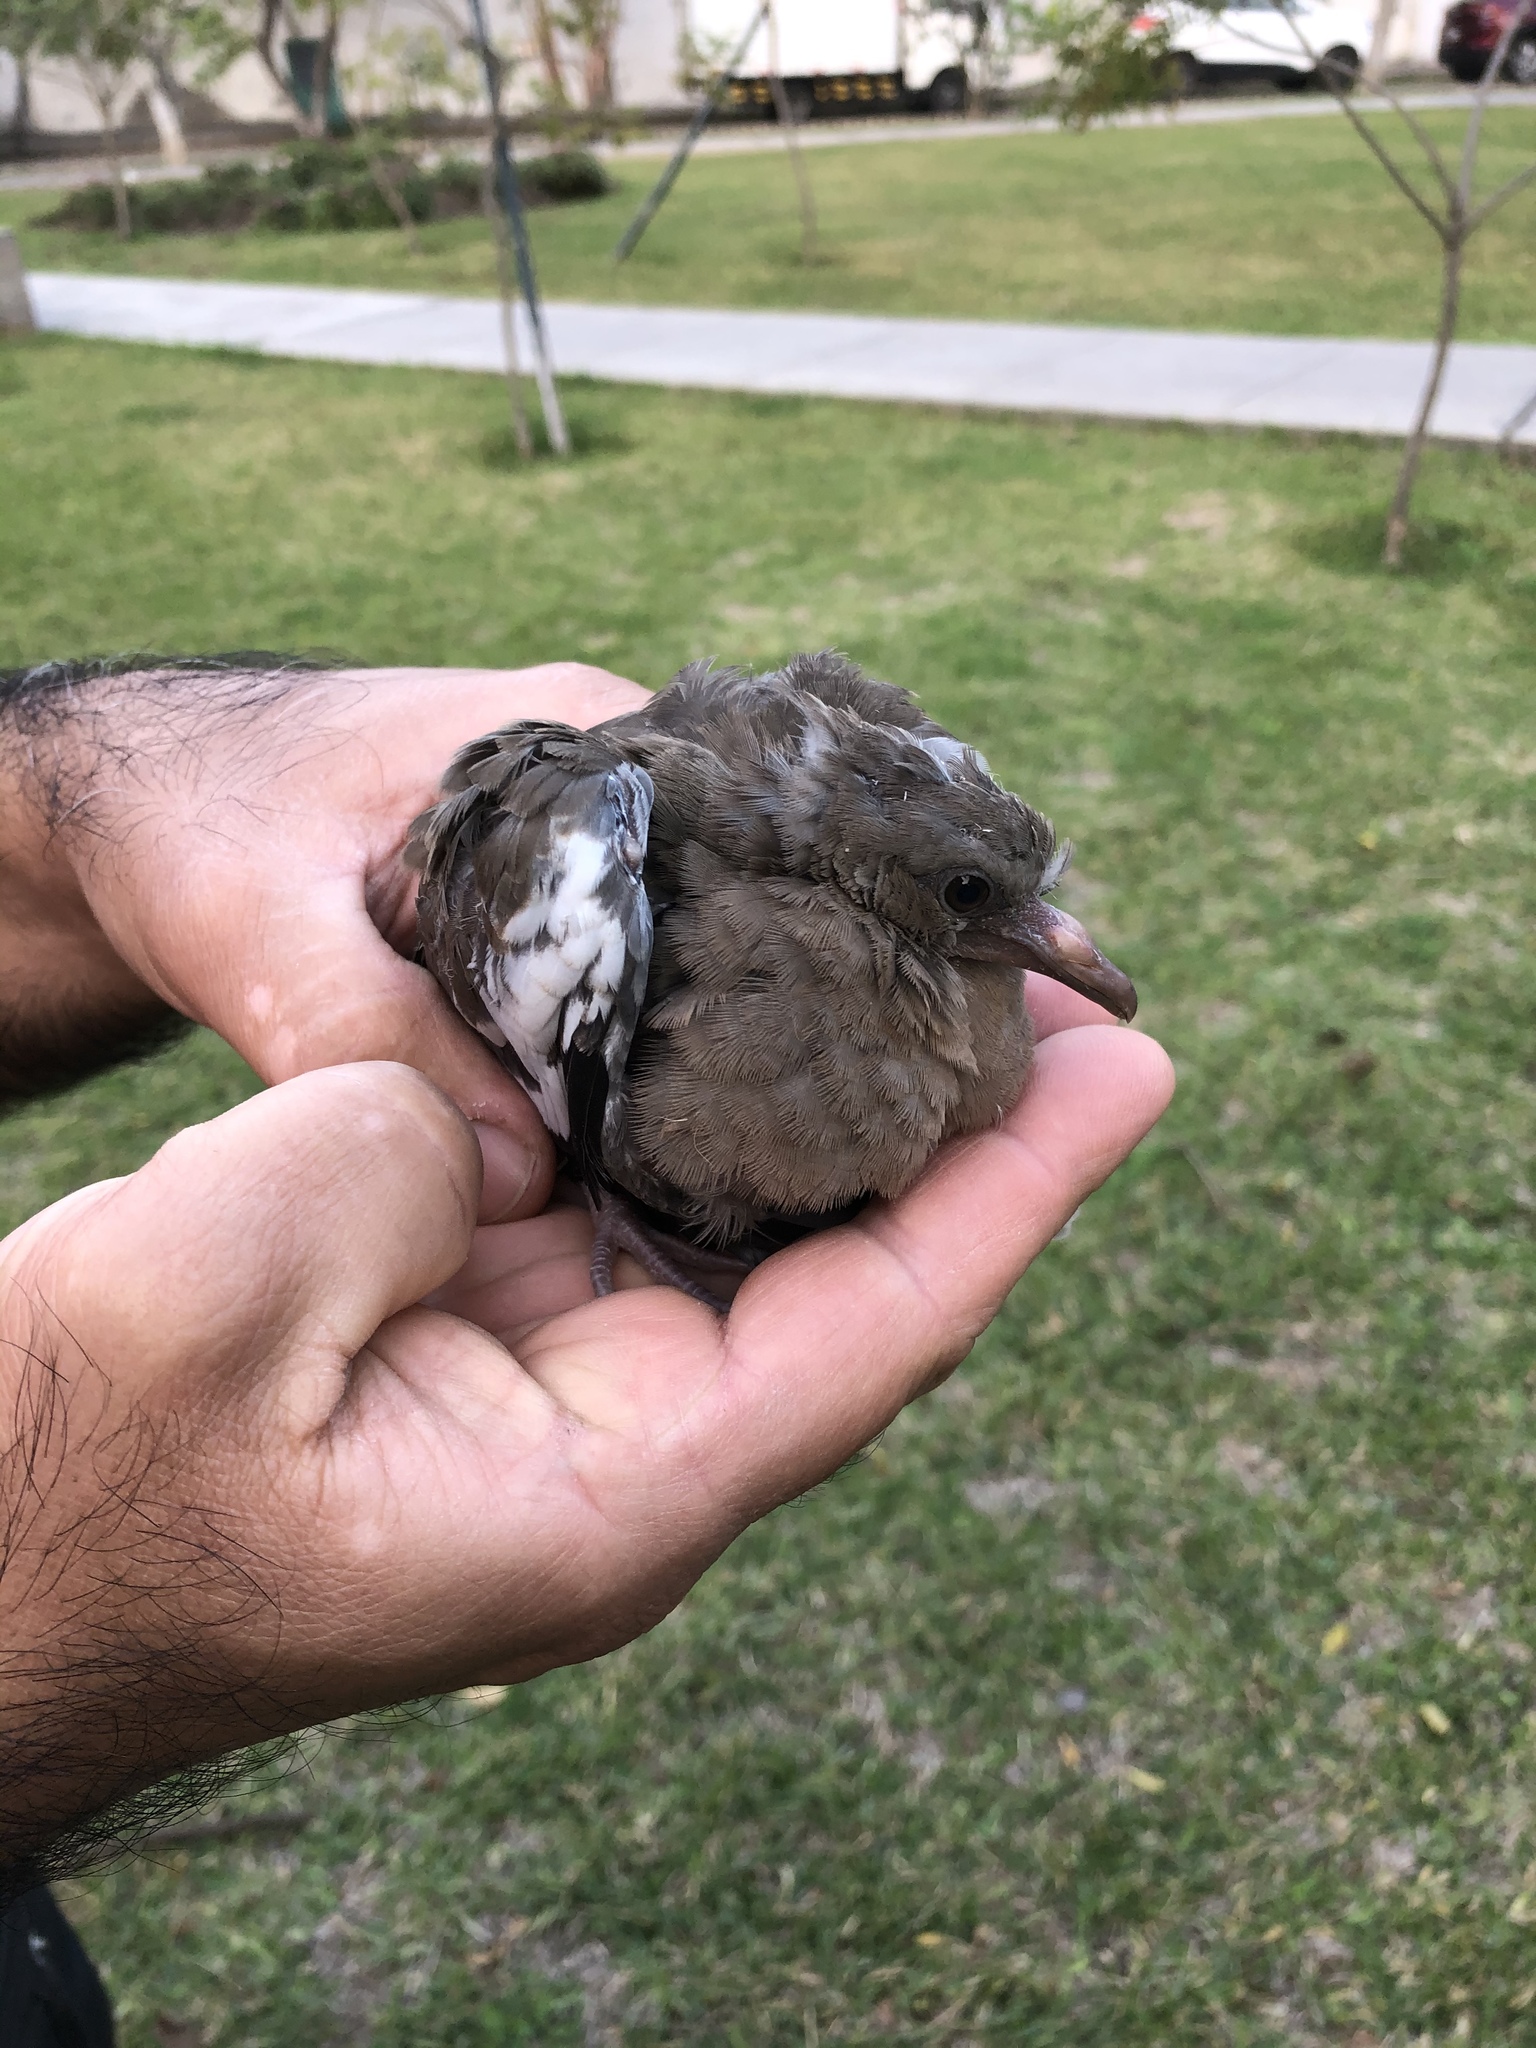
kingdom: Animalia
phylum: Chordata
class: Aves
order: Columbiformes
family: Columbidae
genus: Zenaida
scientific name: Zenaida meloda
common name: West peruvian dove
